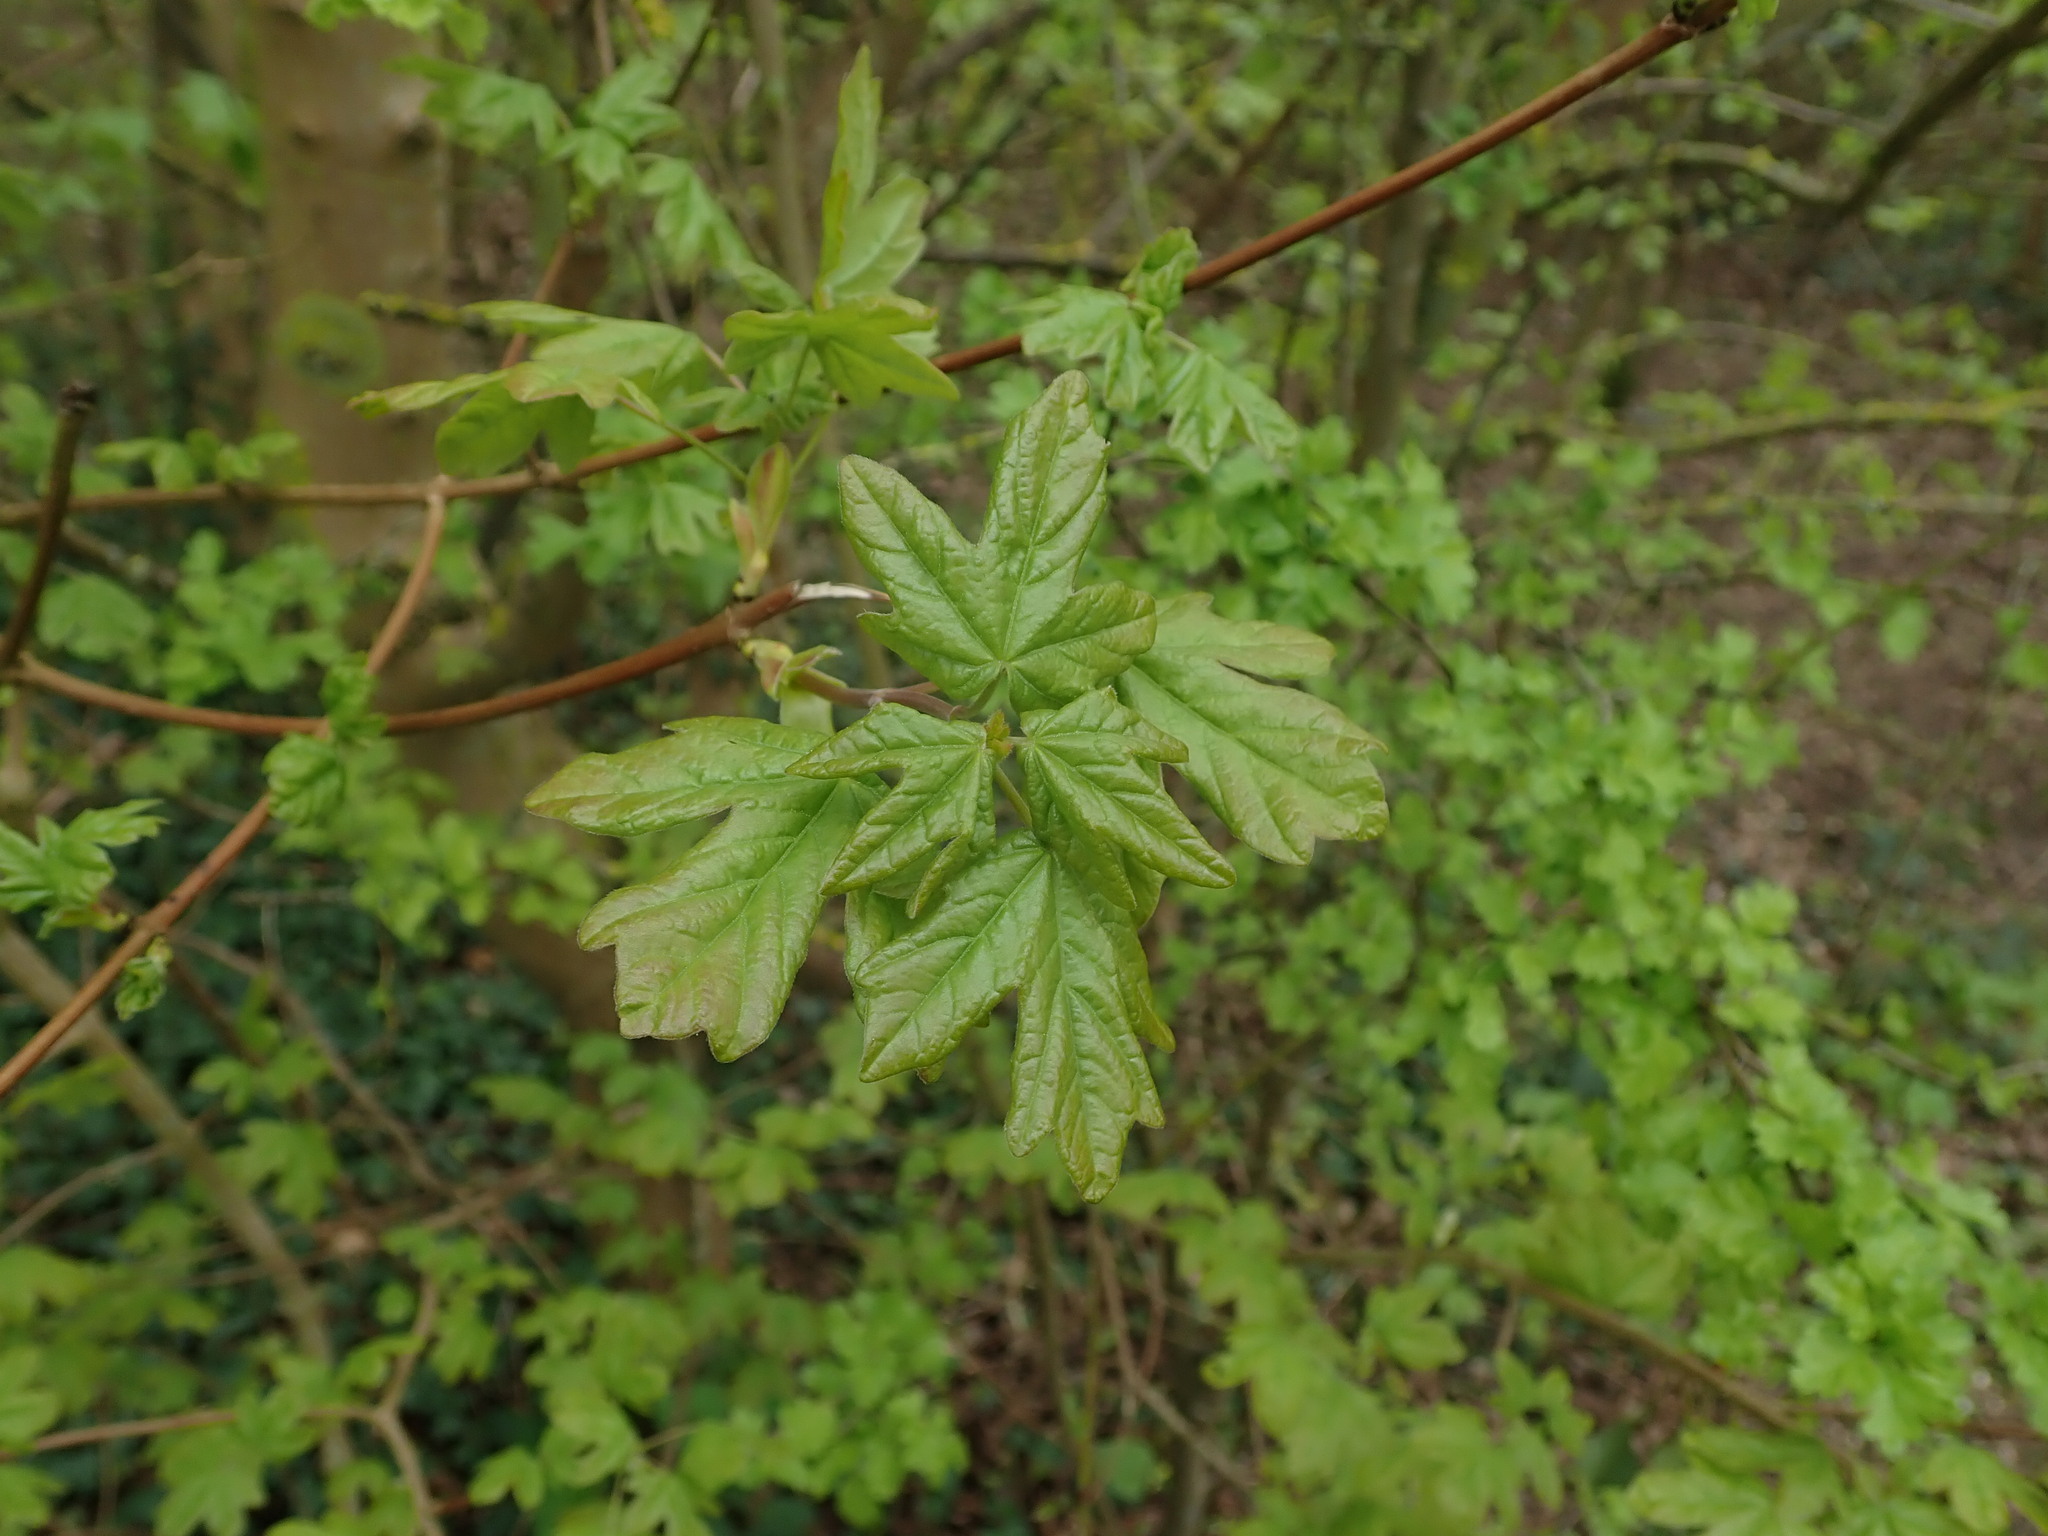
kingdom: Plantae
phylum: Tracheophyta
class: Magnoliopsida
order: Sapindales
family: Sapindaceae
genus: Acer
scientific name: Acer campestre
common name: Field maple
